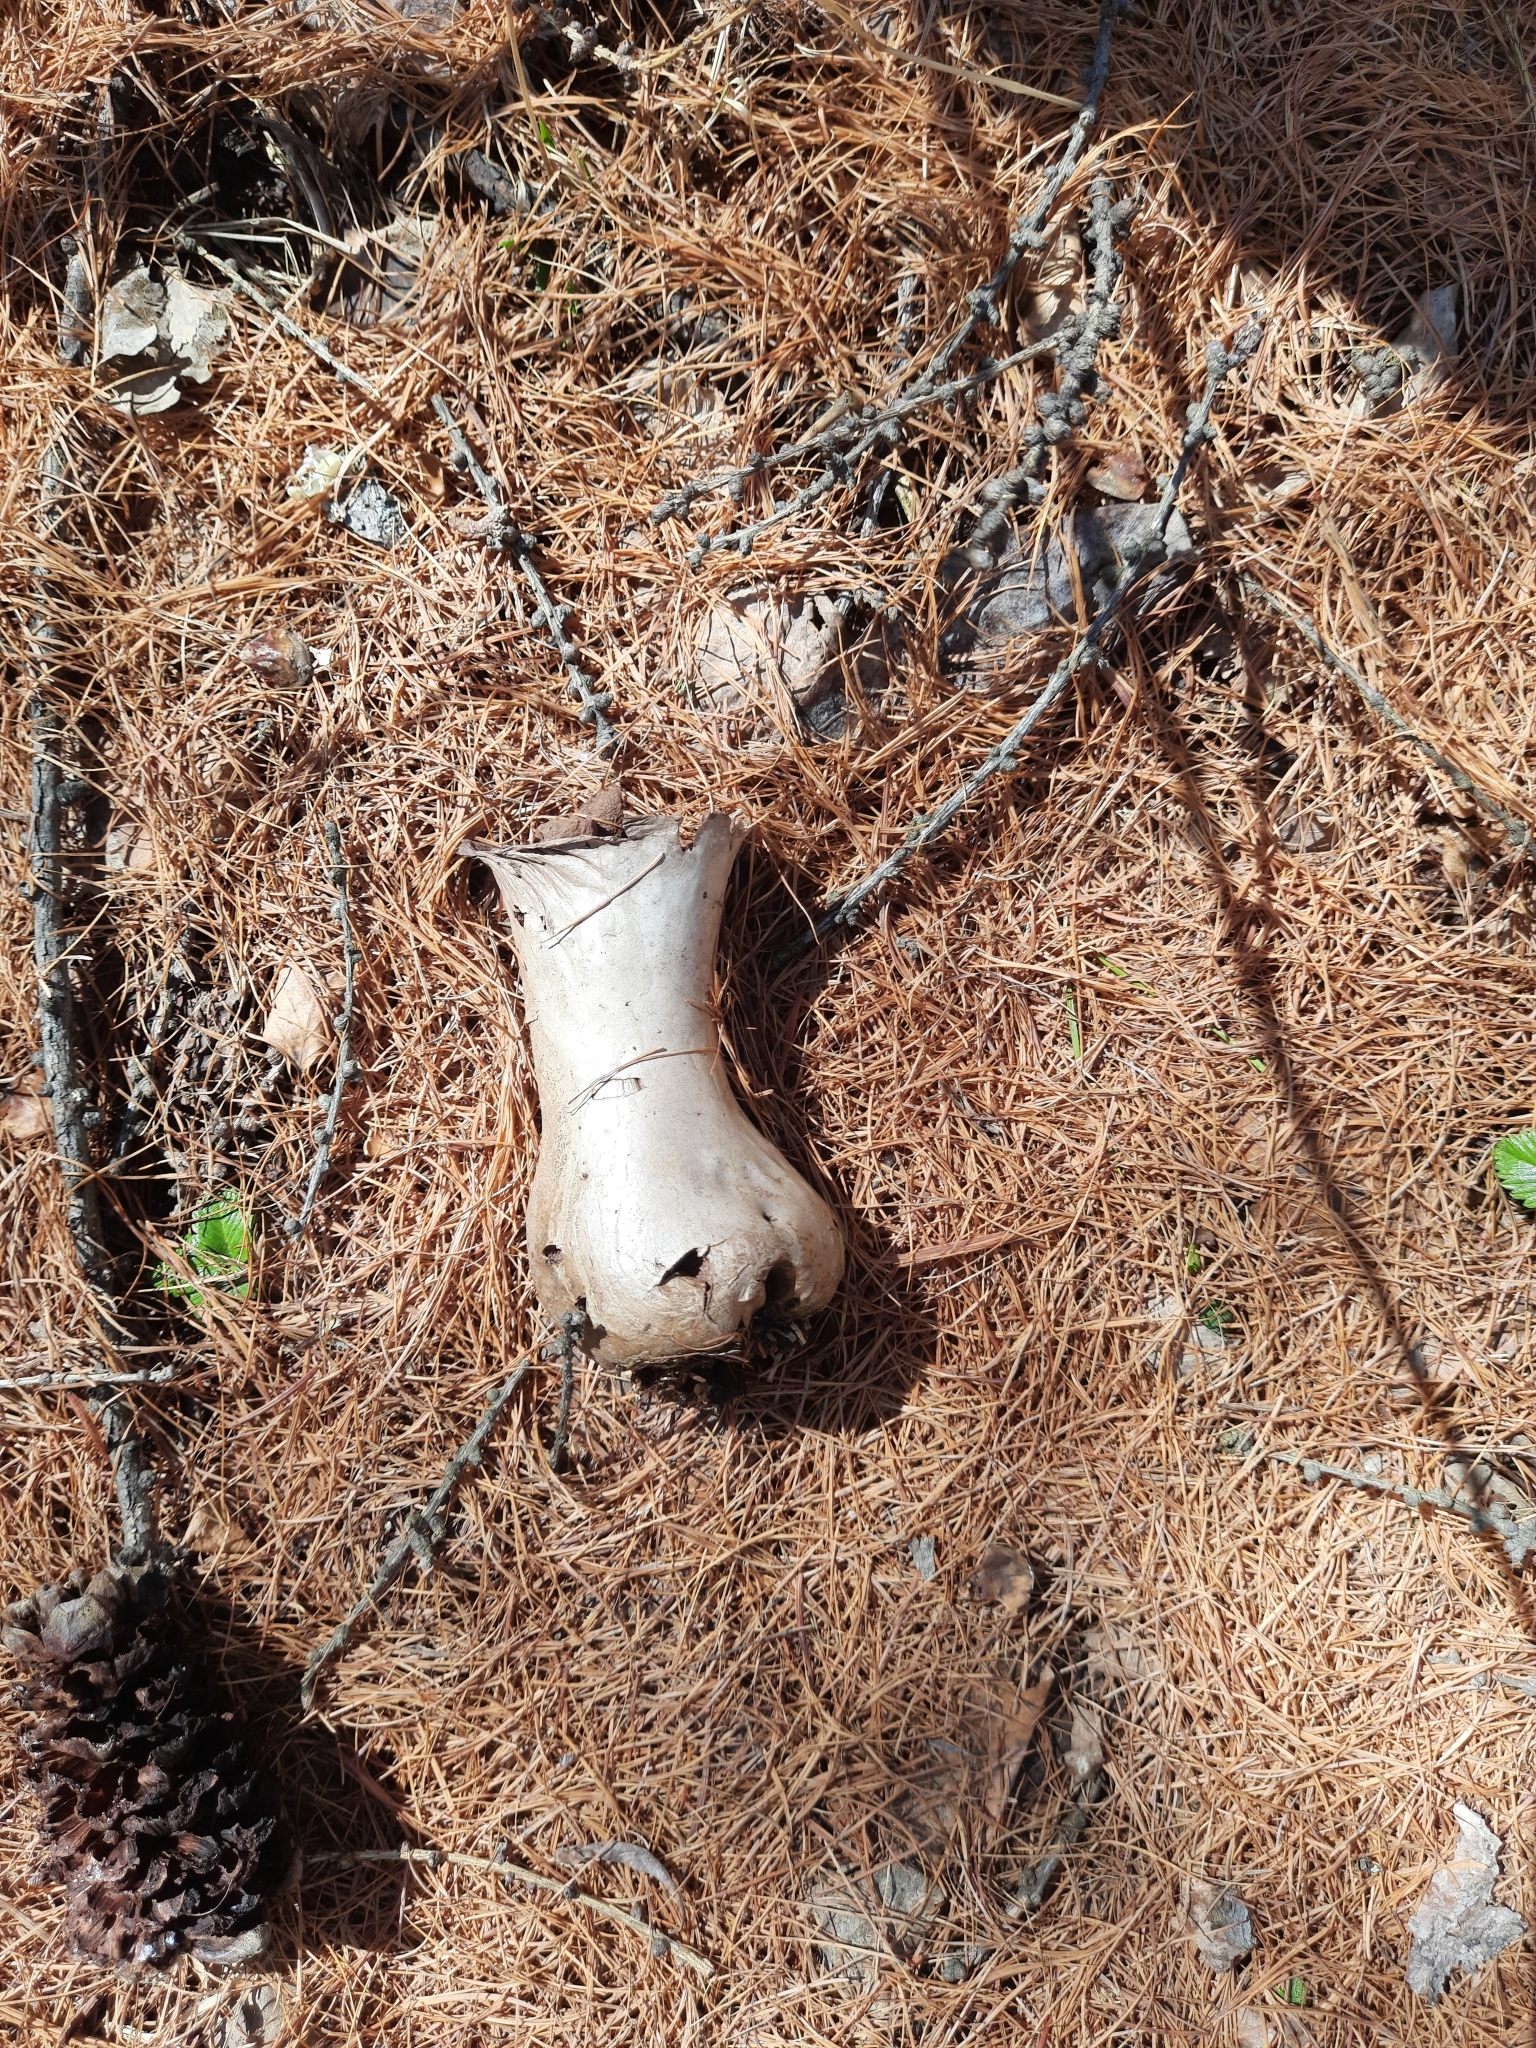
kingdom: Fungi
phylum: Basidiomycota
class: Agaricomycetes
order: Agaricales
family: Lycoperdaceae
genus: Lycoperdon
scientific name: Lycoperdon excipuliforme
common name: Pestle puffball
